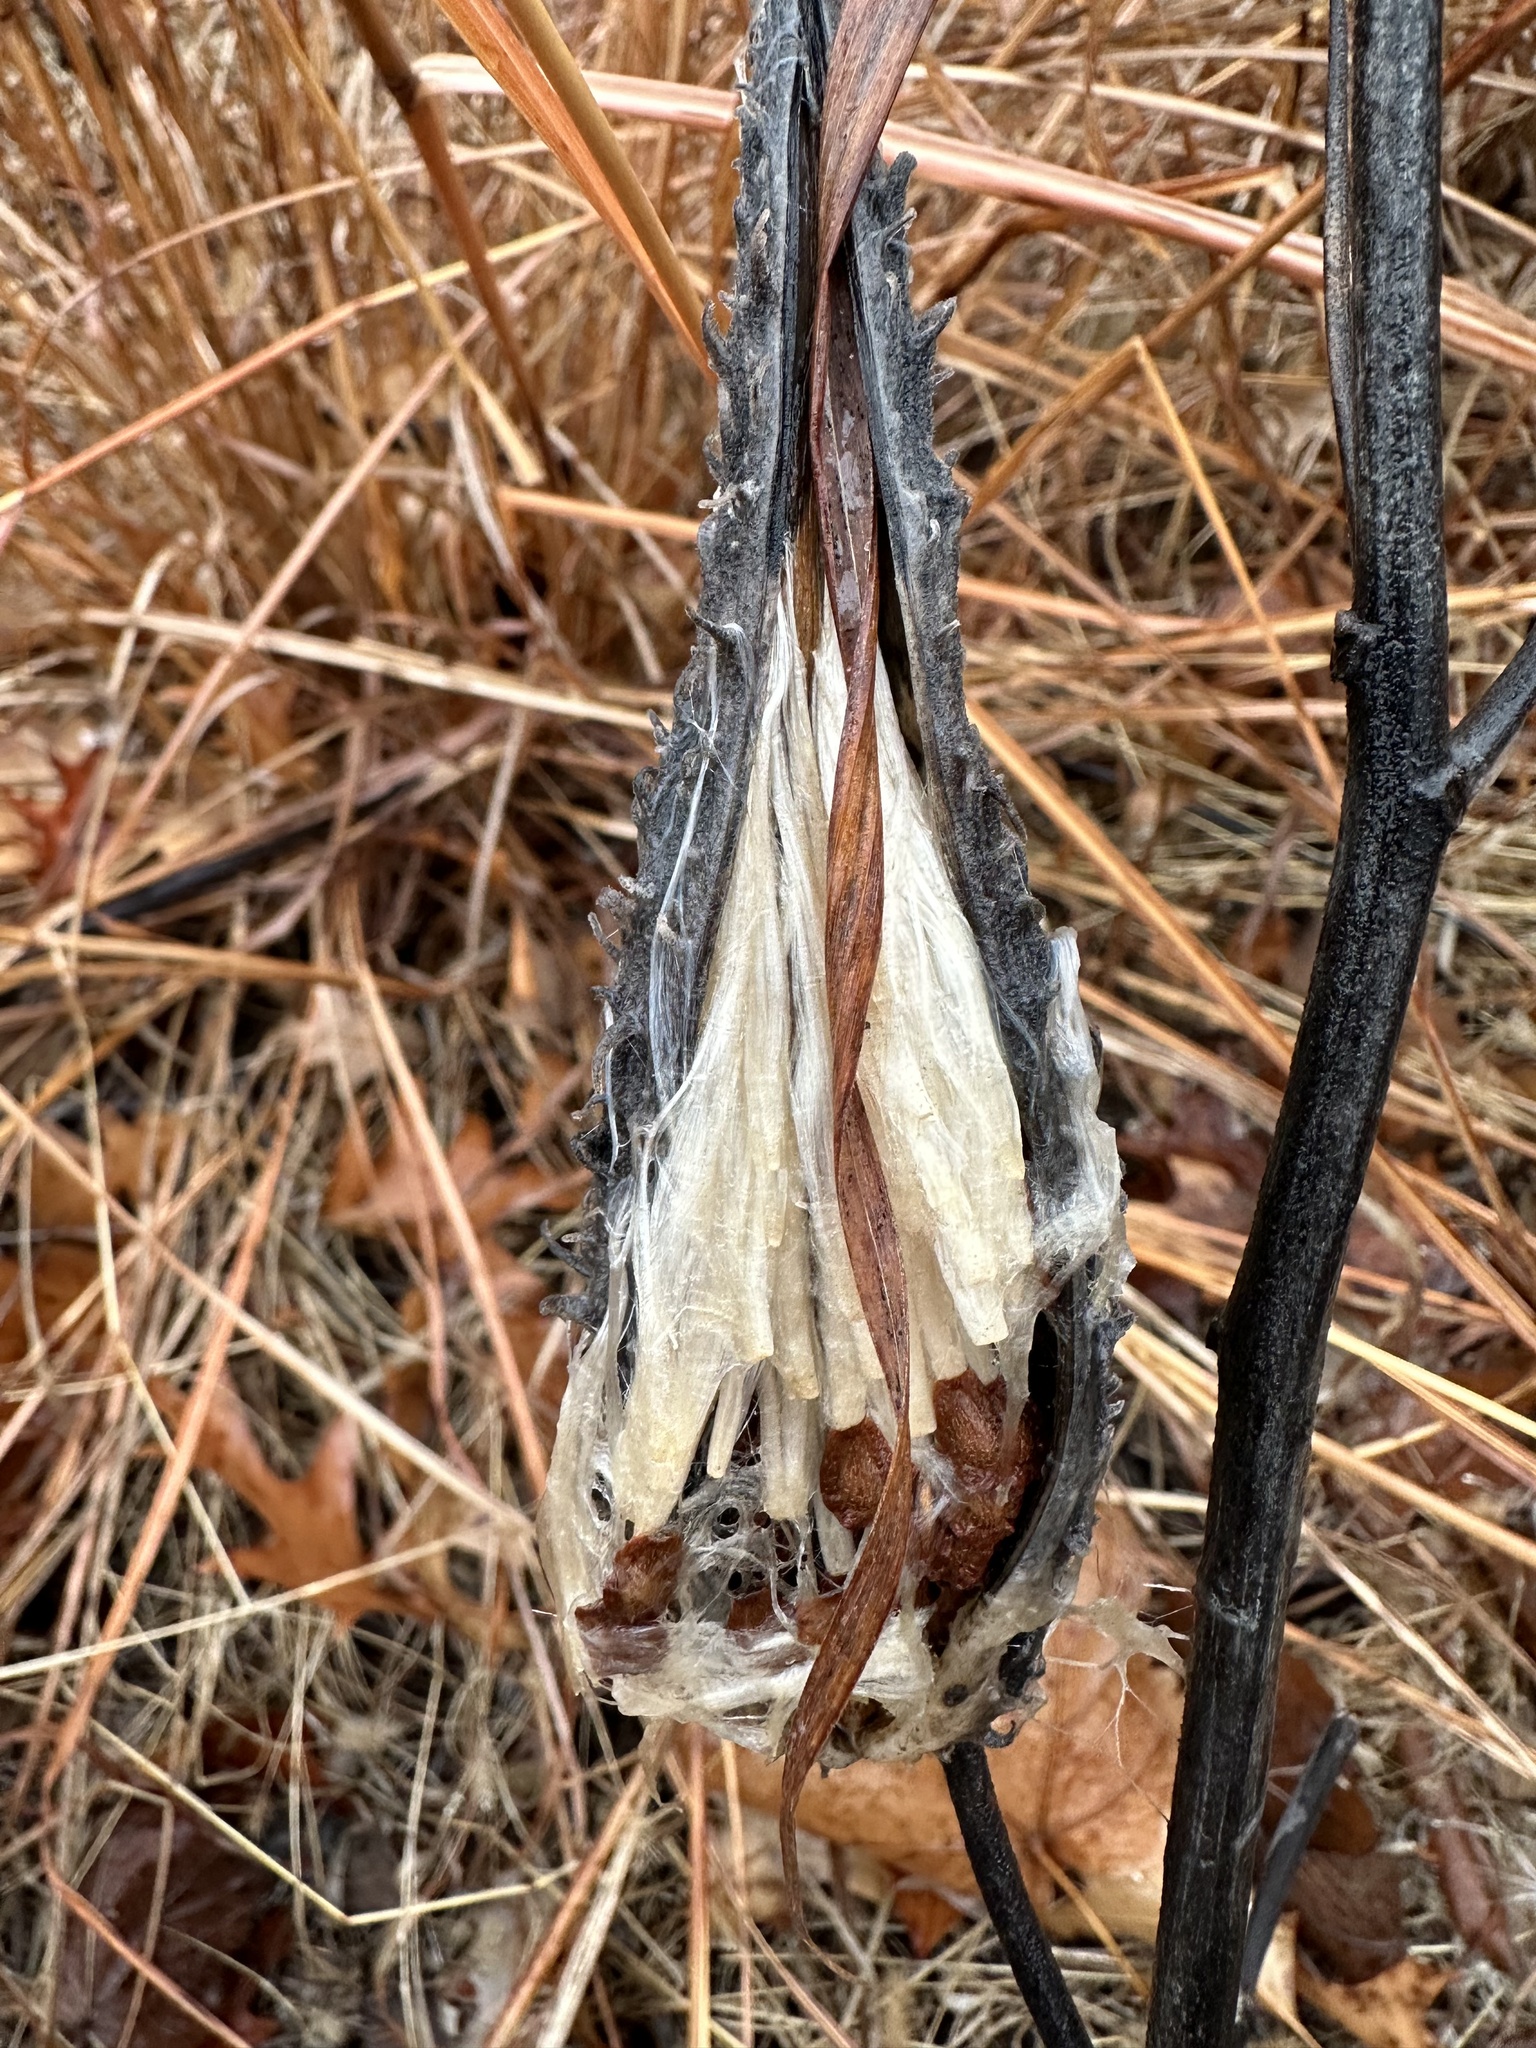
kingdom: Plantae
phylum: Tracheophyta
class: Magnoliopsida
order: Gentianales
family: Apocynaceae
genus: Asclepias
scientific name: Asclepias syriaca
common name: Common milkweed
